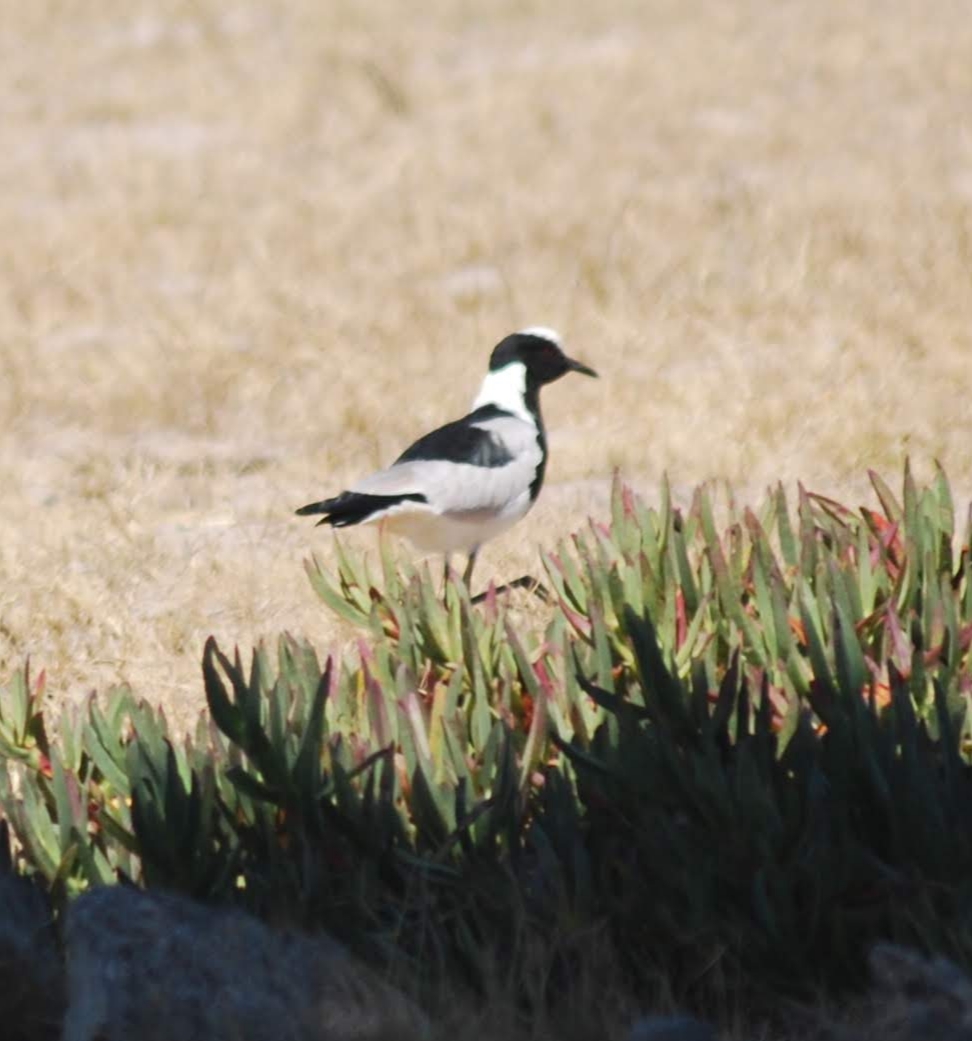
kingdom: Animalia
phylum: Chordata
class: Aves
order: Charadriiformes
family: Charadriidae
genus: Vanellus
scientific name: Vanellus armatus
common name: Blacksmith lapwing
